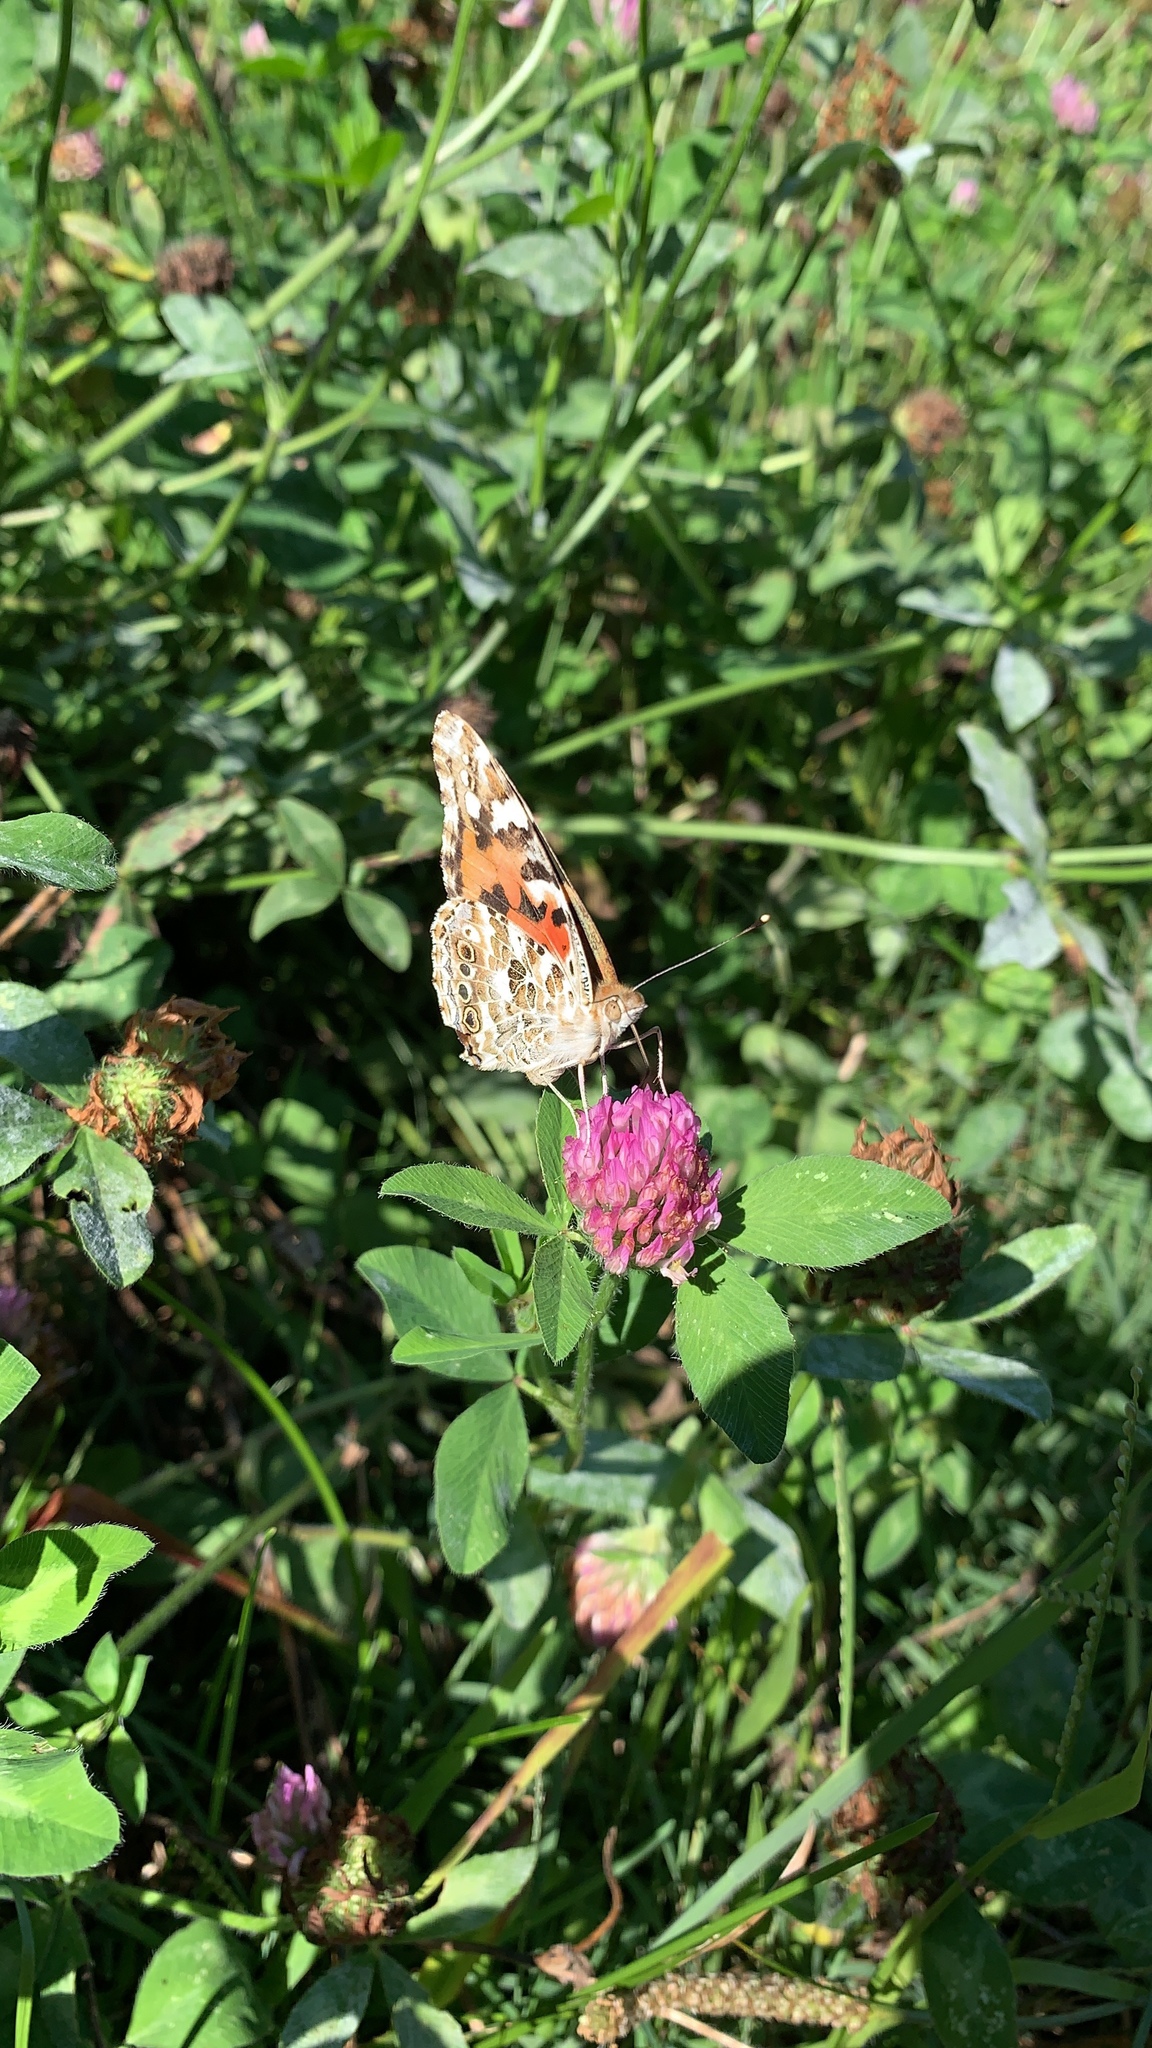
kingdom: Animalia
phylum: Arthropoda
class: Insecta
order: Lepidoptera
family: Nymphalidae
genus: Vanessa
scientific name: Vanessa cardui
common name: Painted lady
